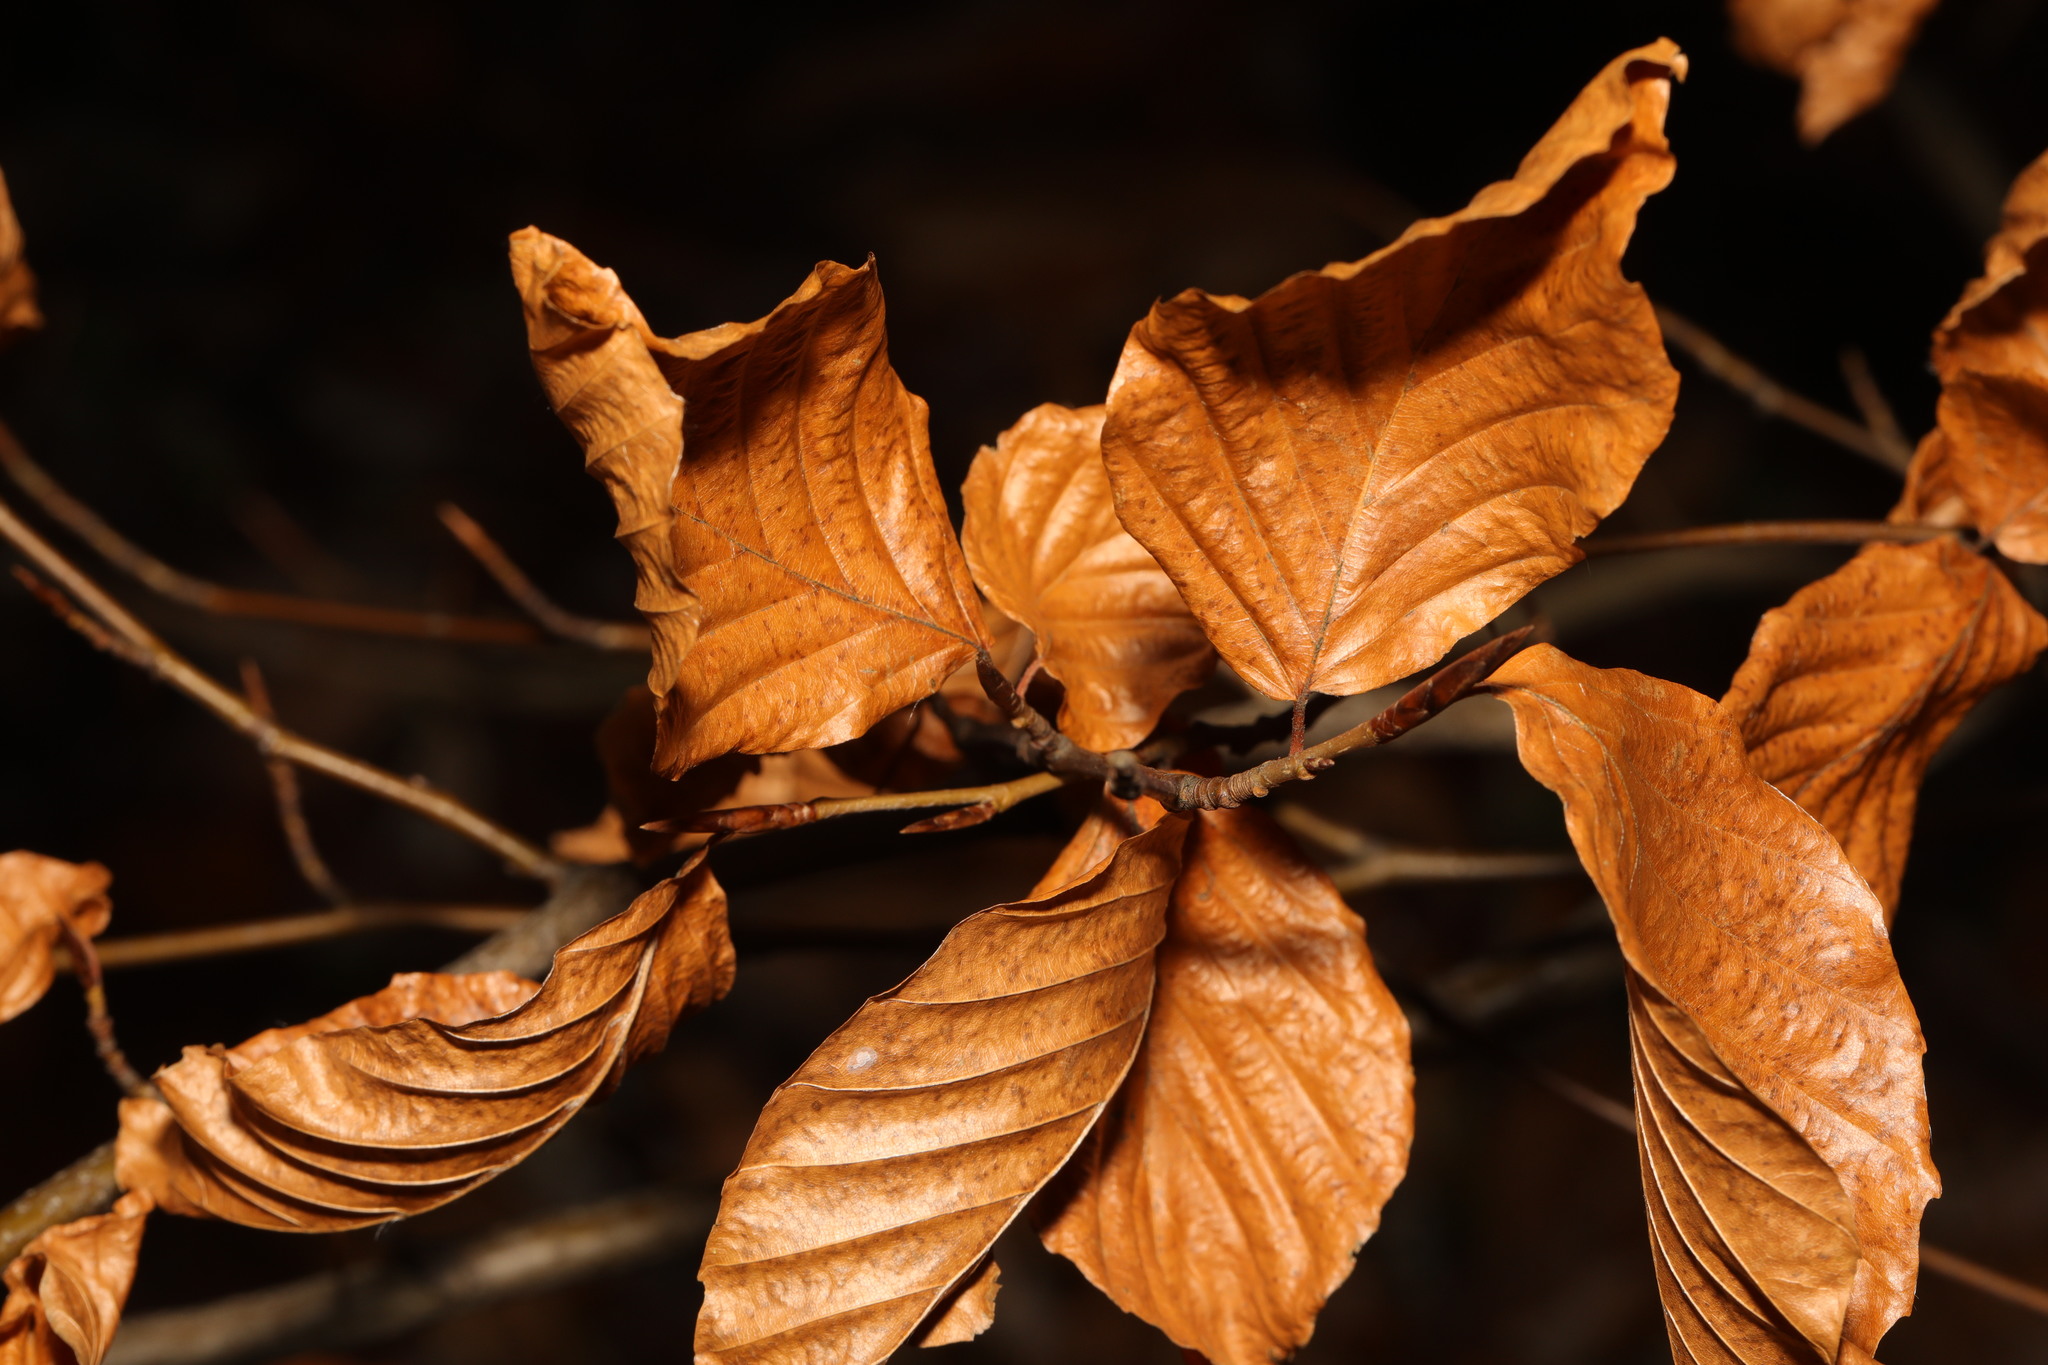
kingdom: Plantae
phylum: Tracheophyta
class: Magnoliopsida
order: Fagales
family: Fagaceae
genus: Fagus
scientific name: Fagus sylvatica
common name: Beech
